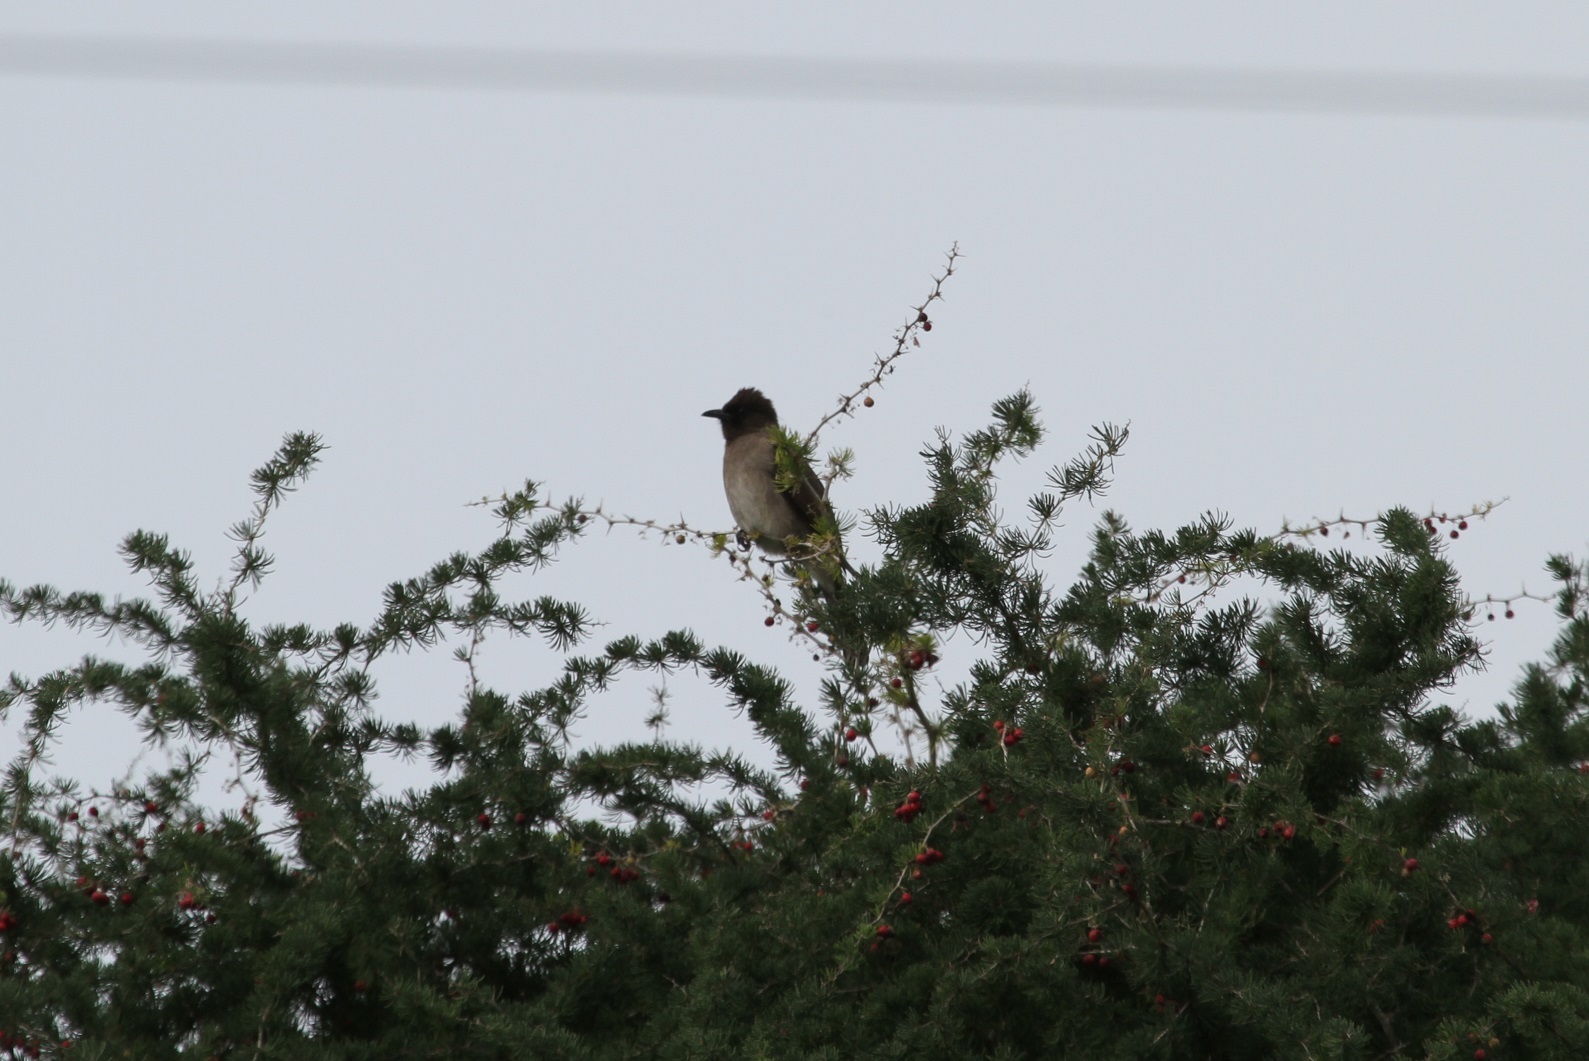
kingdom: Animalia
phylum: Chordata
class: Aves
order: Passeriformes
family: Pycnonotidae
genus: Pycnonotus
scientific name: Pycnonotus barbatus
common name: Common bulbul
